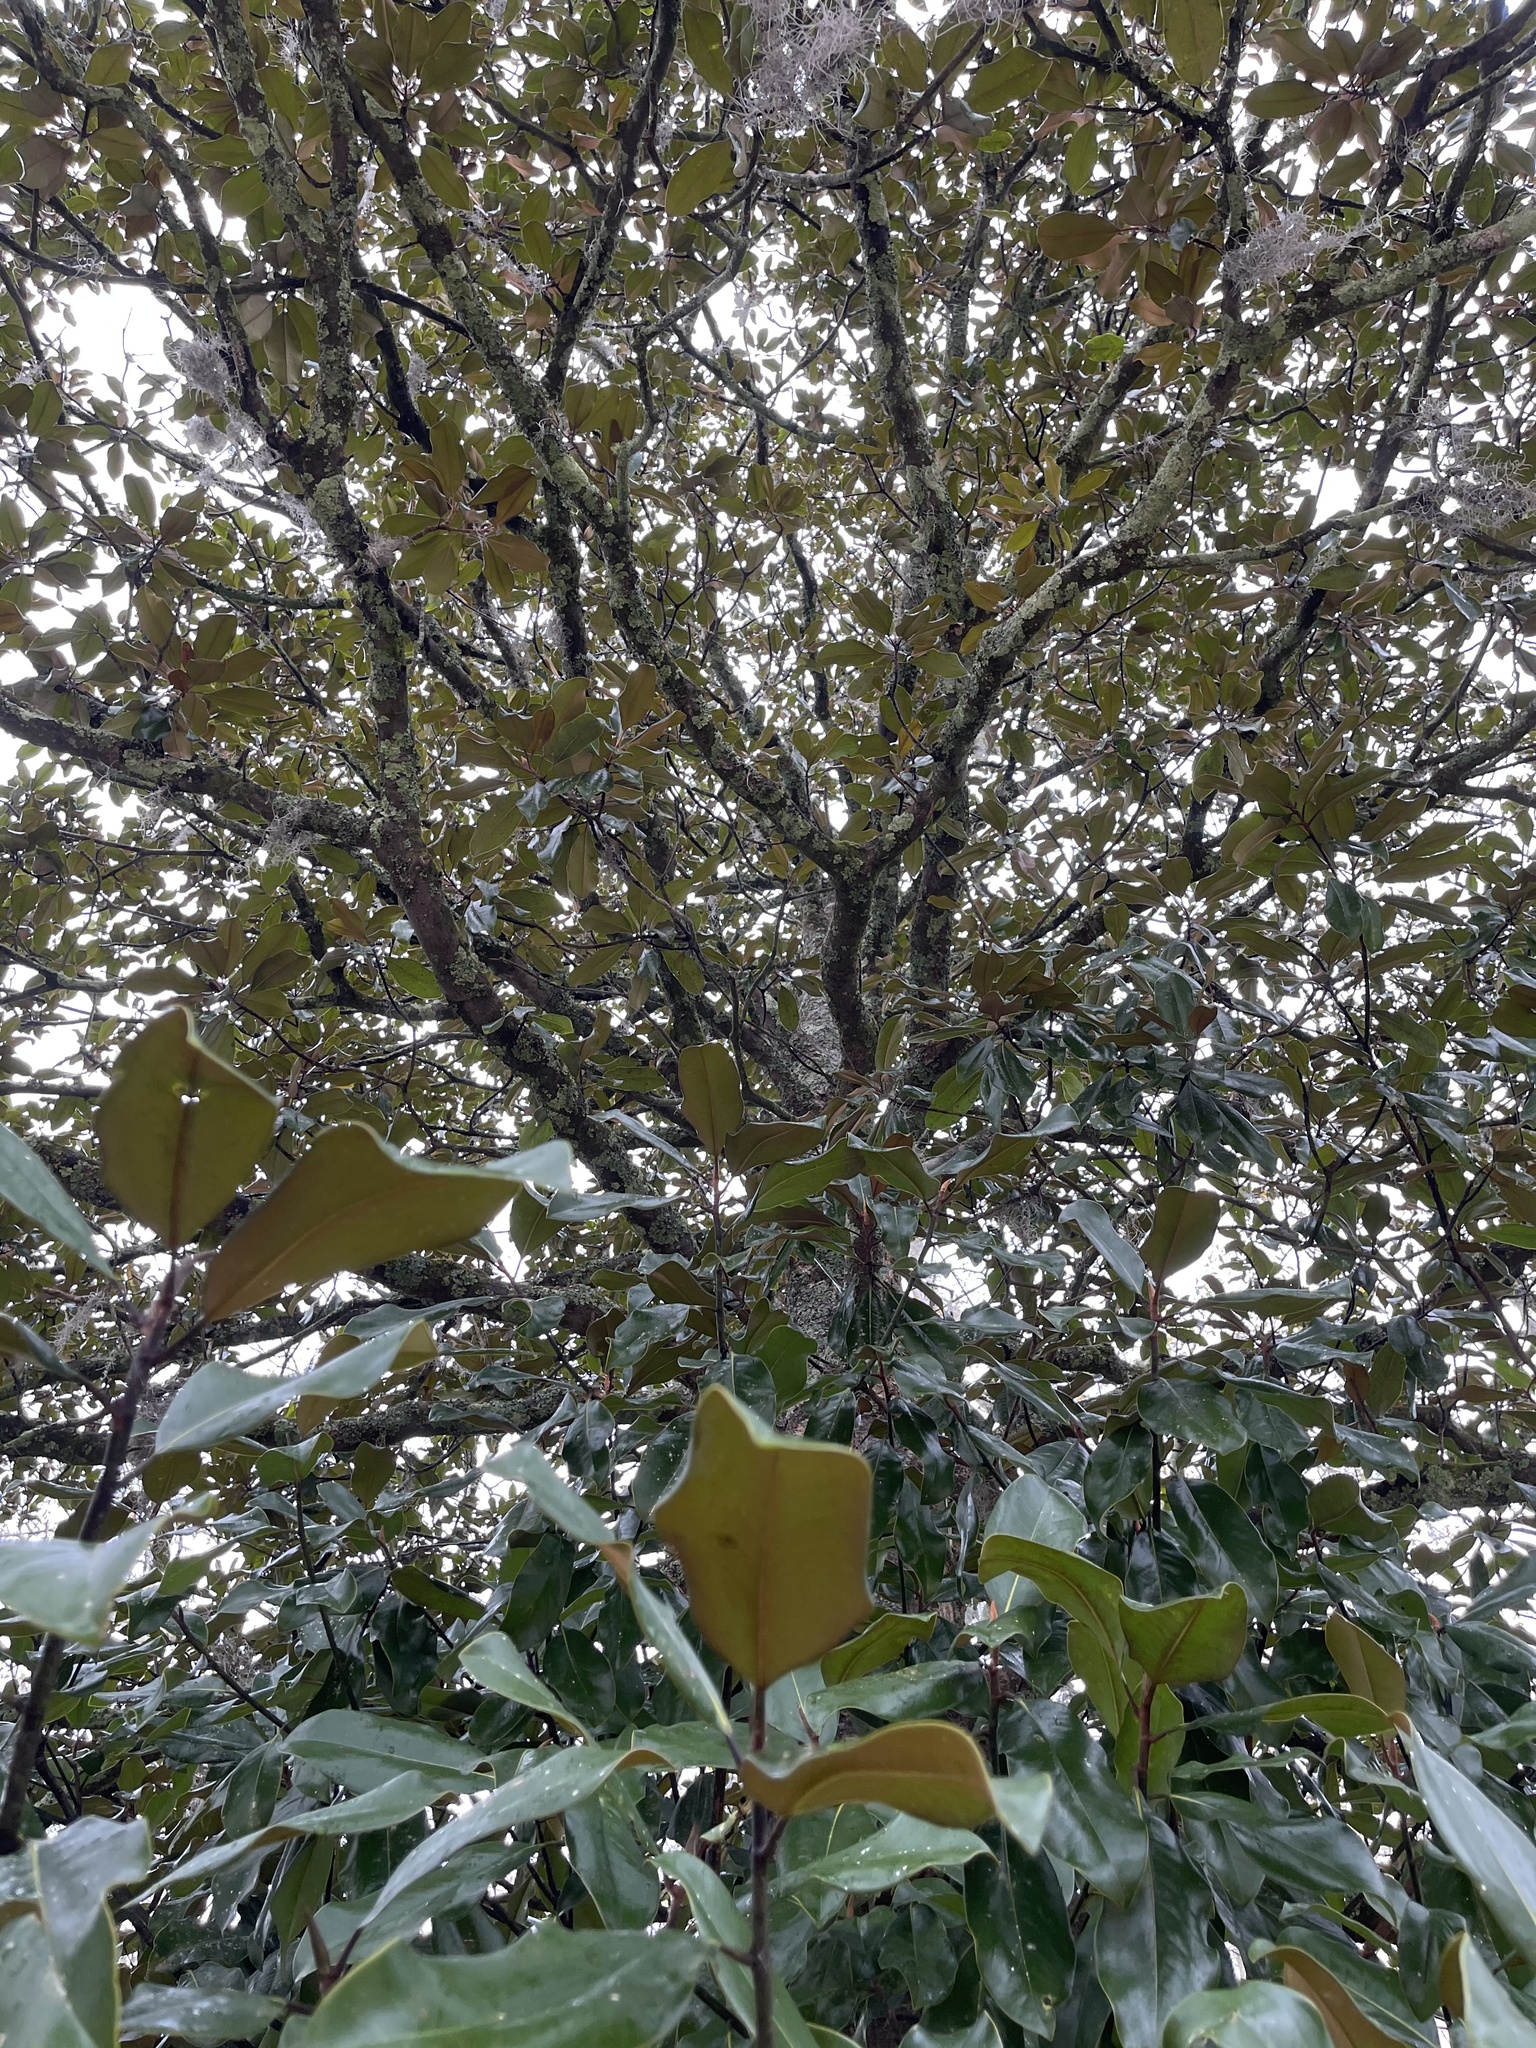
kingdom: Plantae
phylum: Tracheophyta
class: Magnoliopsida
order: Magnoliales
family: Magnoliaceae
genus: Magnolia
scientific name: Magnolia grandiflora
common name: Southern magnolia
